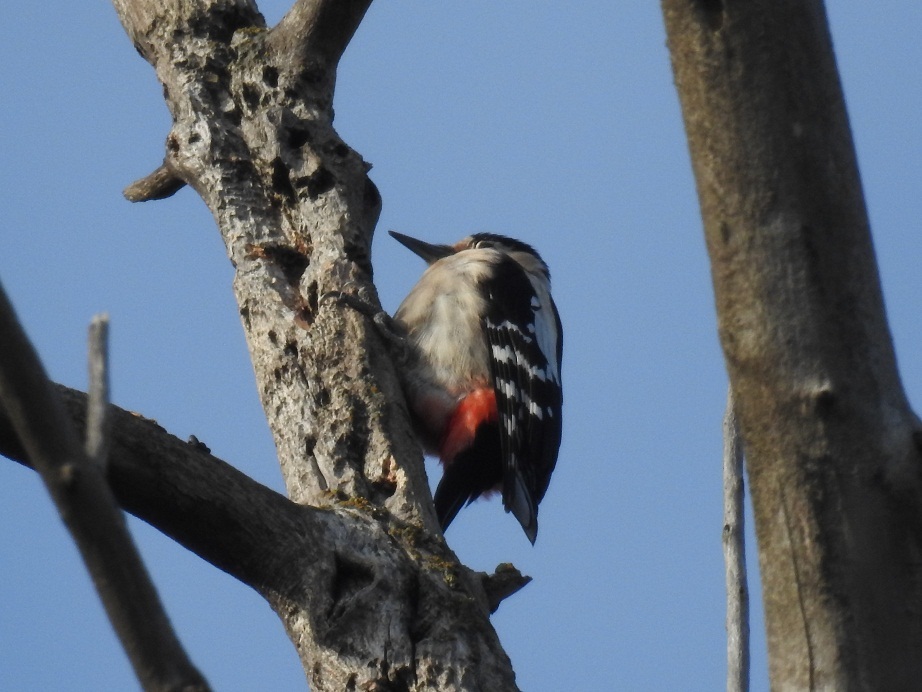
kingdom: Animalia
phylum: Chordata
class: Aves
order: Piciformes
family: Picidae
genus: Dendrocopos
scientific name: Dendrocopos major
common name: Great spotted woodpecker
